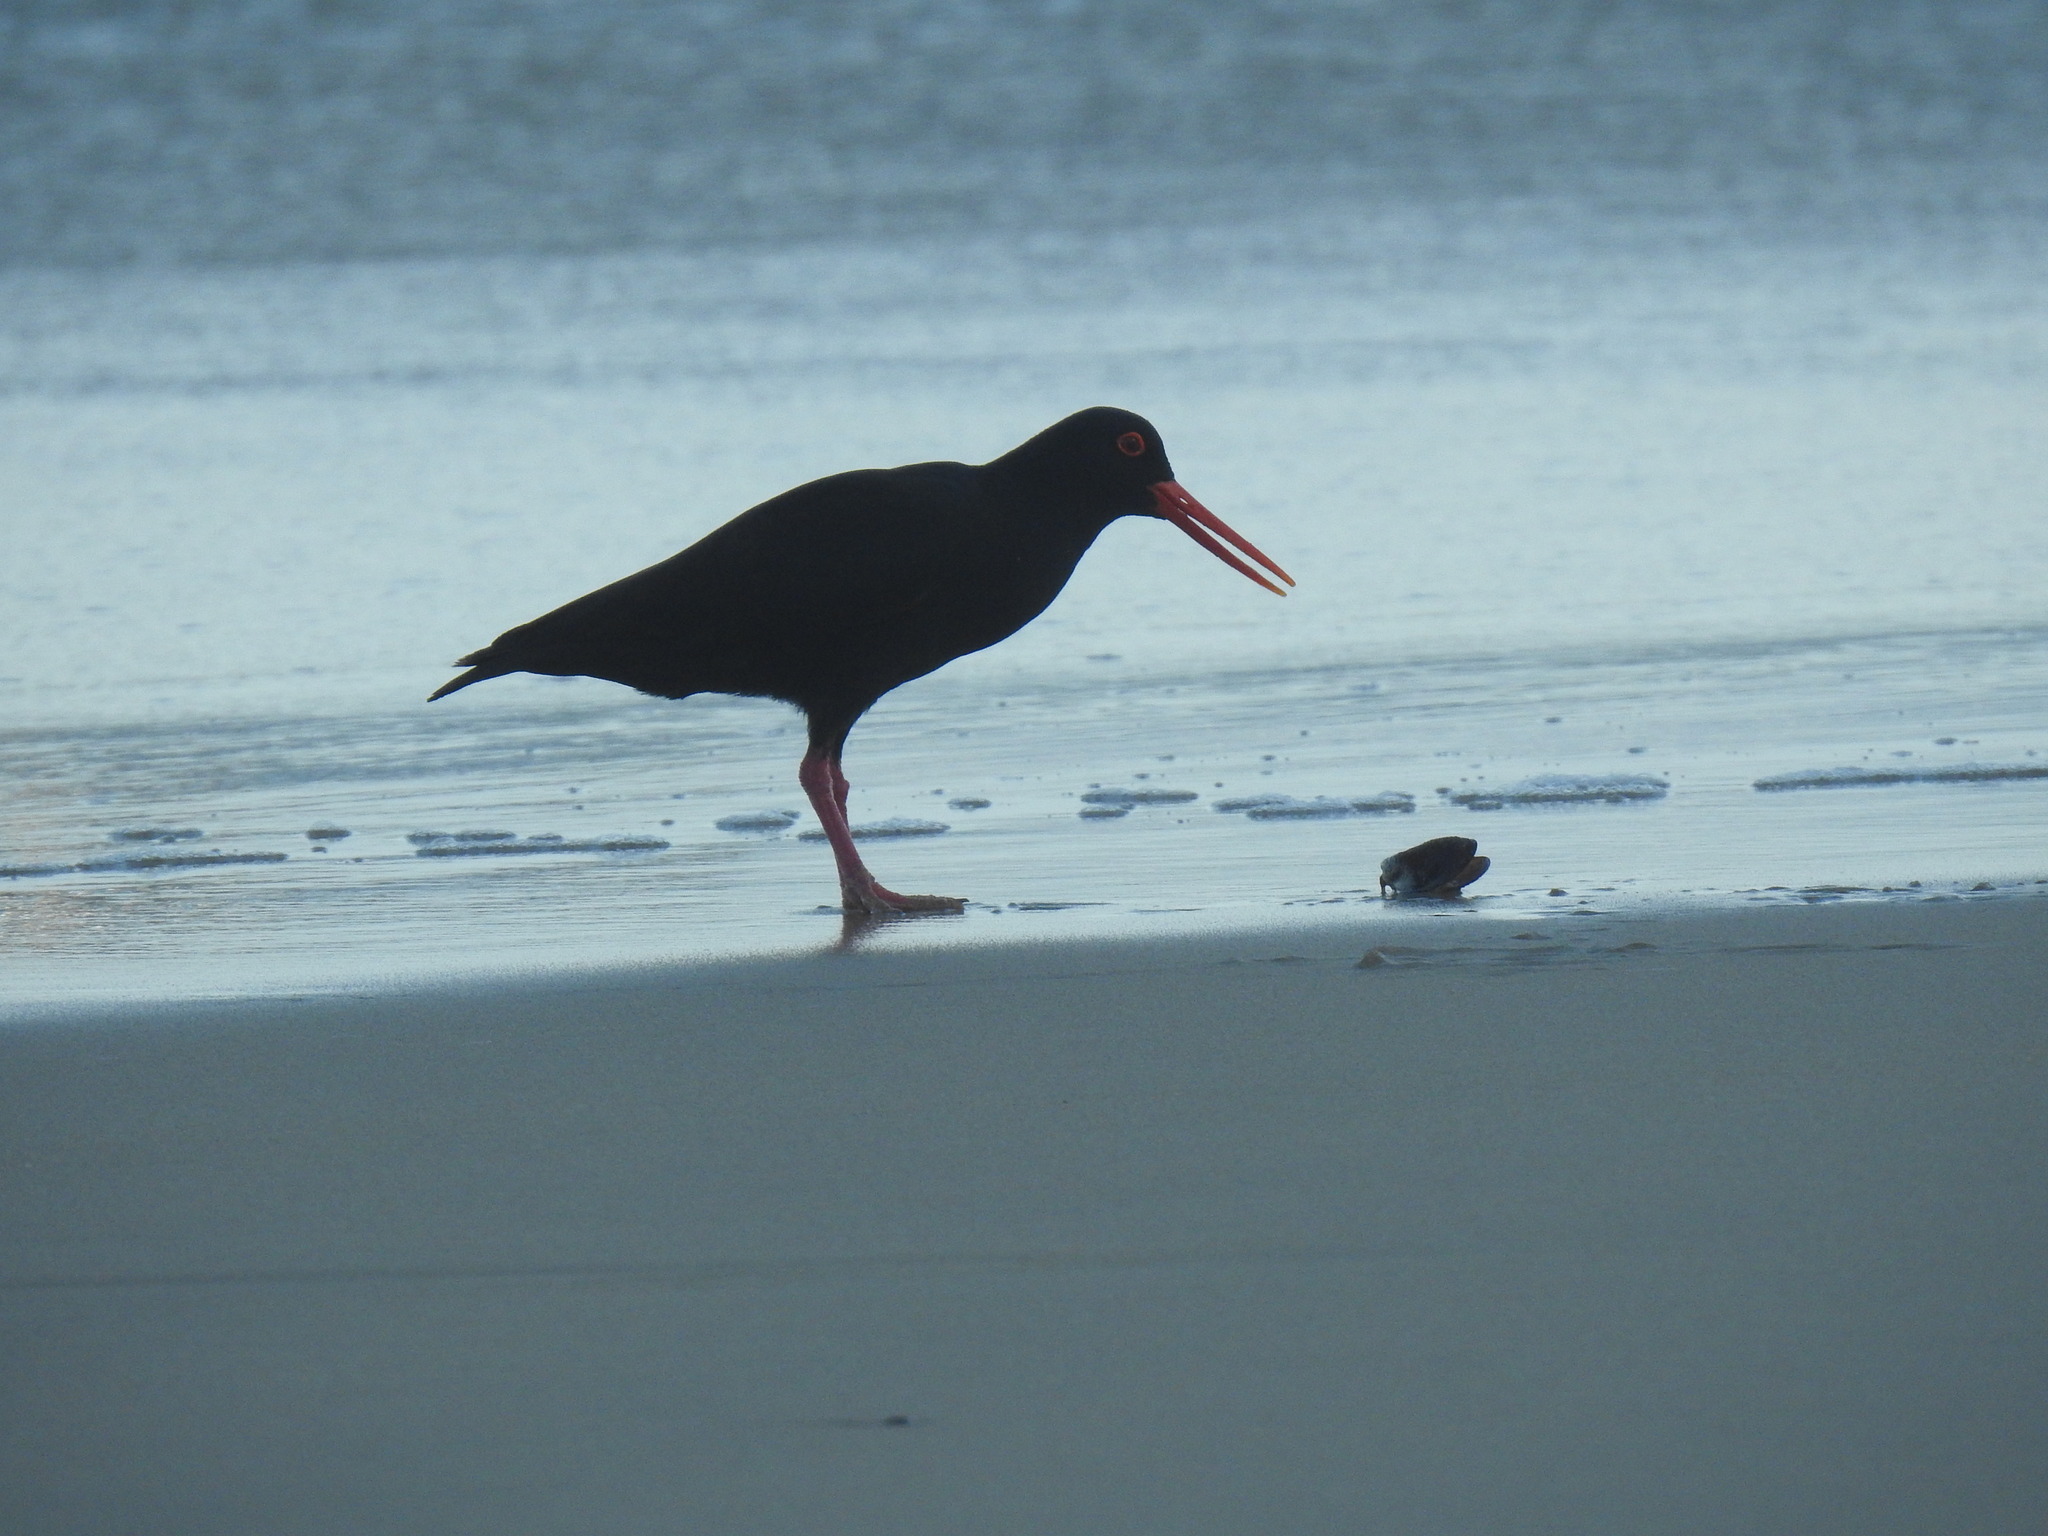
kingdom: Animalia
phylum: Chordata
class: Aves
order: Charadriiformes
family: Haematopodidae
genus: Haematopus
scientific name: Haematopus moquini
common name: African oystercatcher
